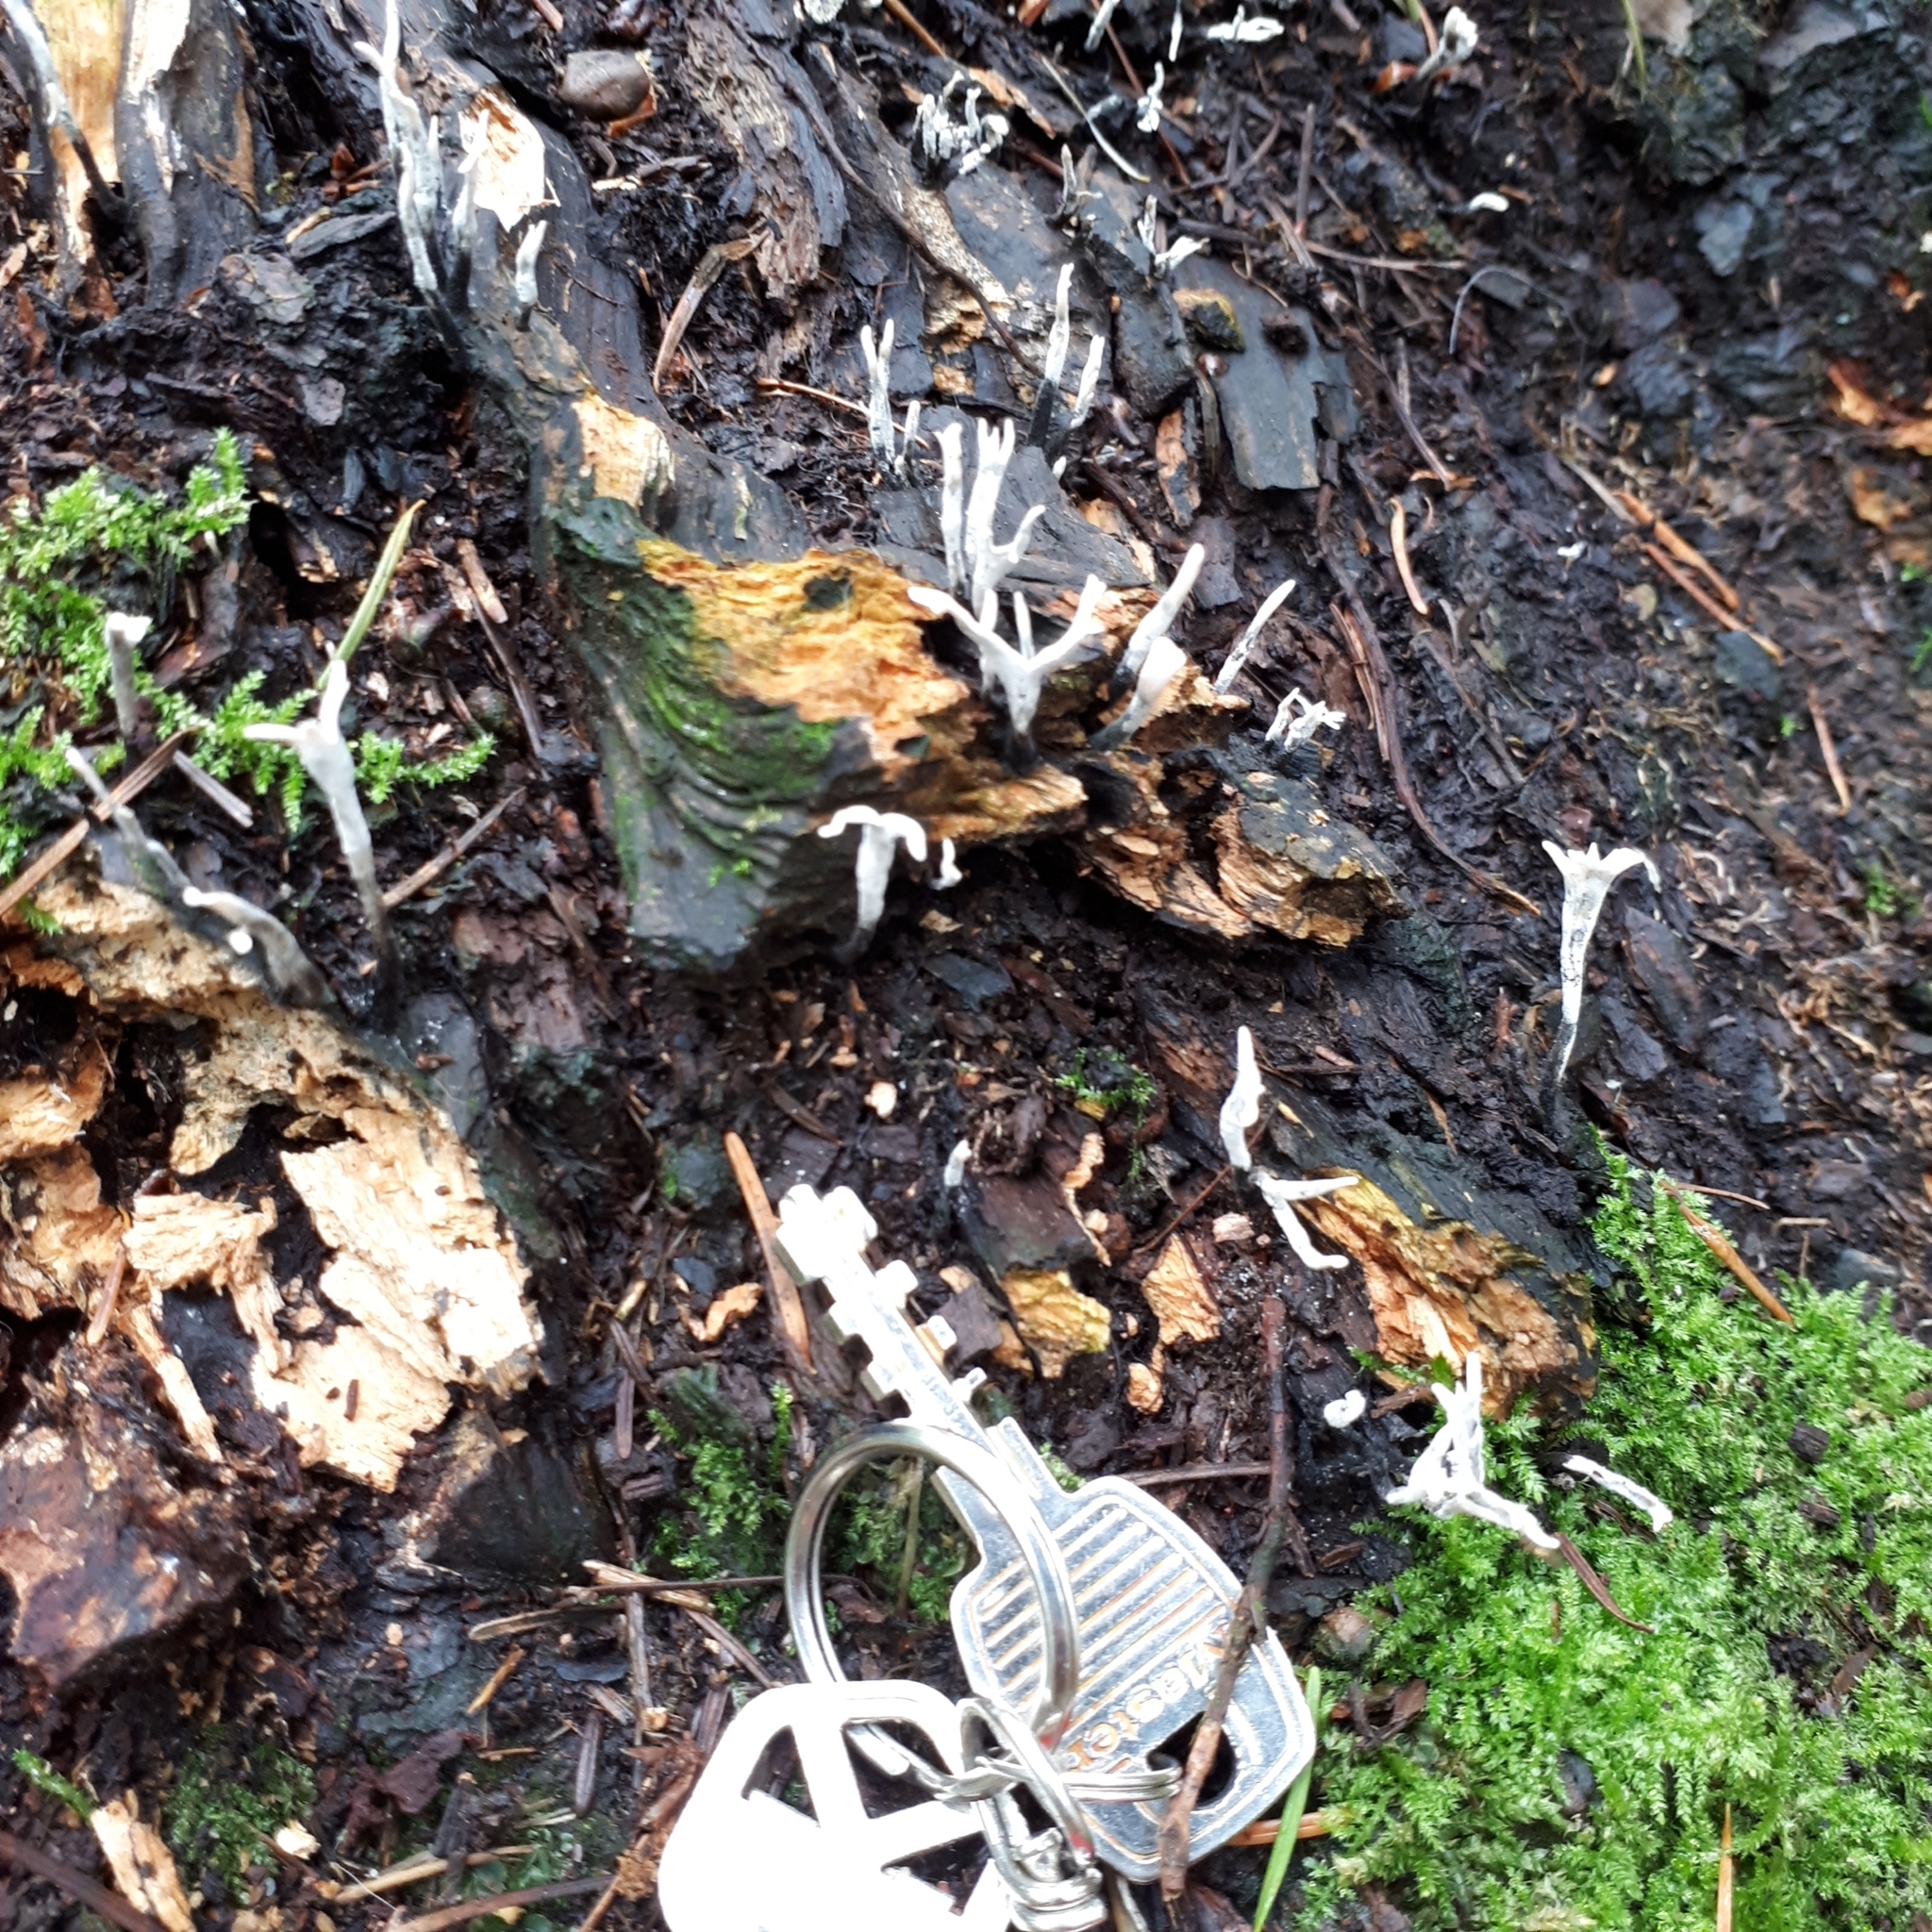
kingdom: Fungi
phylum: Ascomycota
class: Sordariomycetes
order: Xylariales
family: Xylariaceae
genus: Xylaria
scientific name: Xylaria hypoxylon
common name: Candle-snuff fungus
